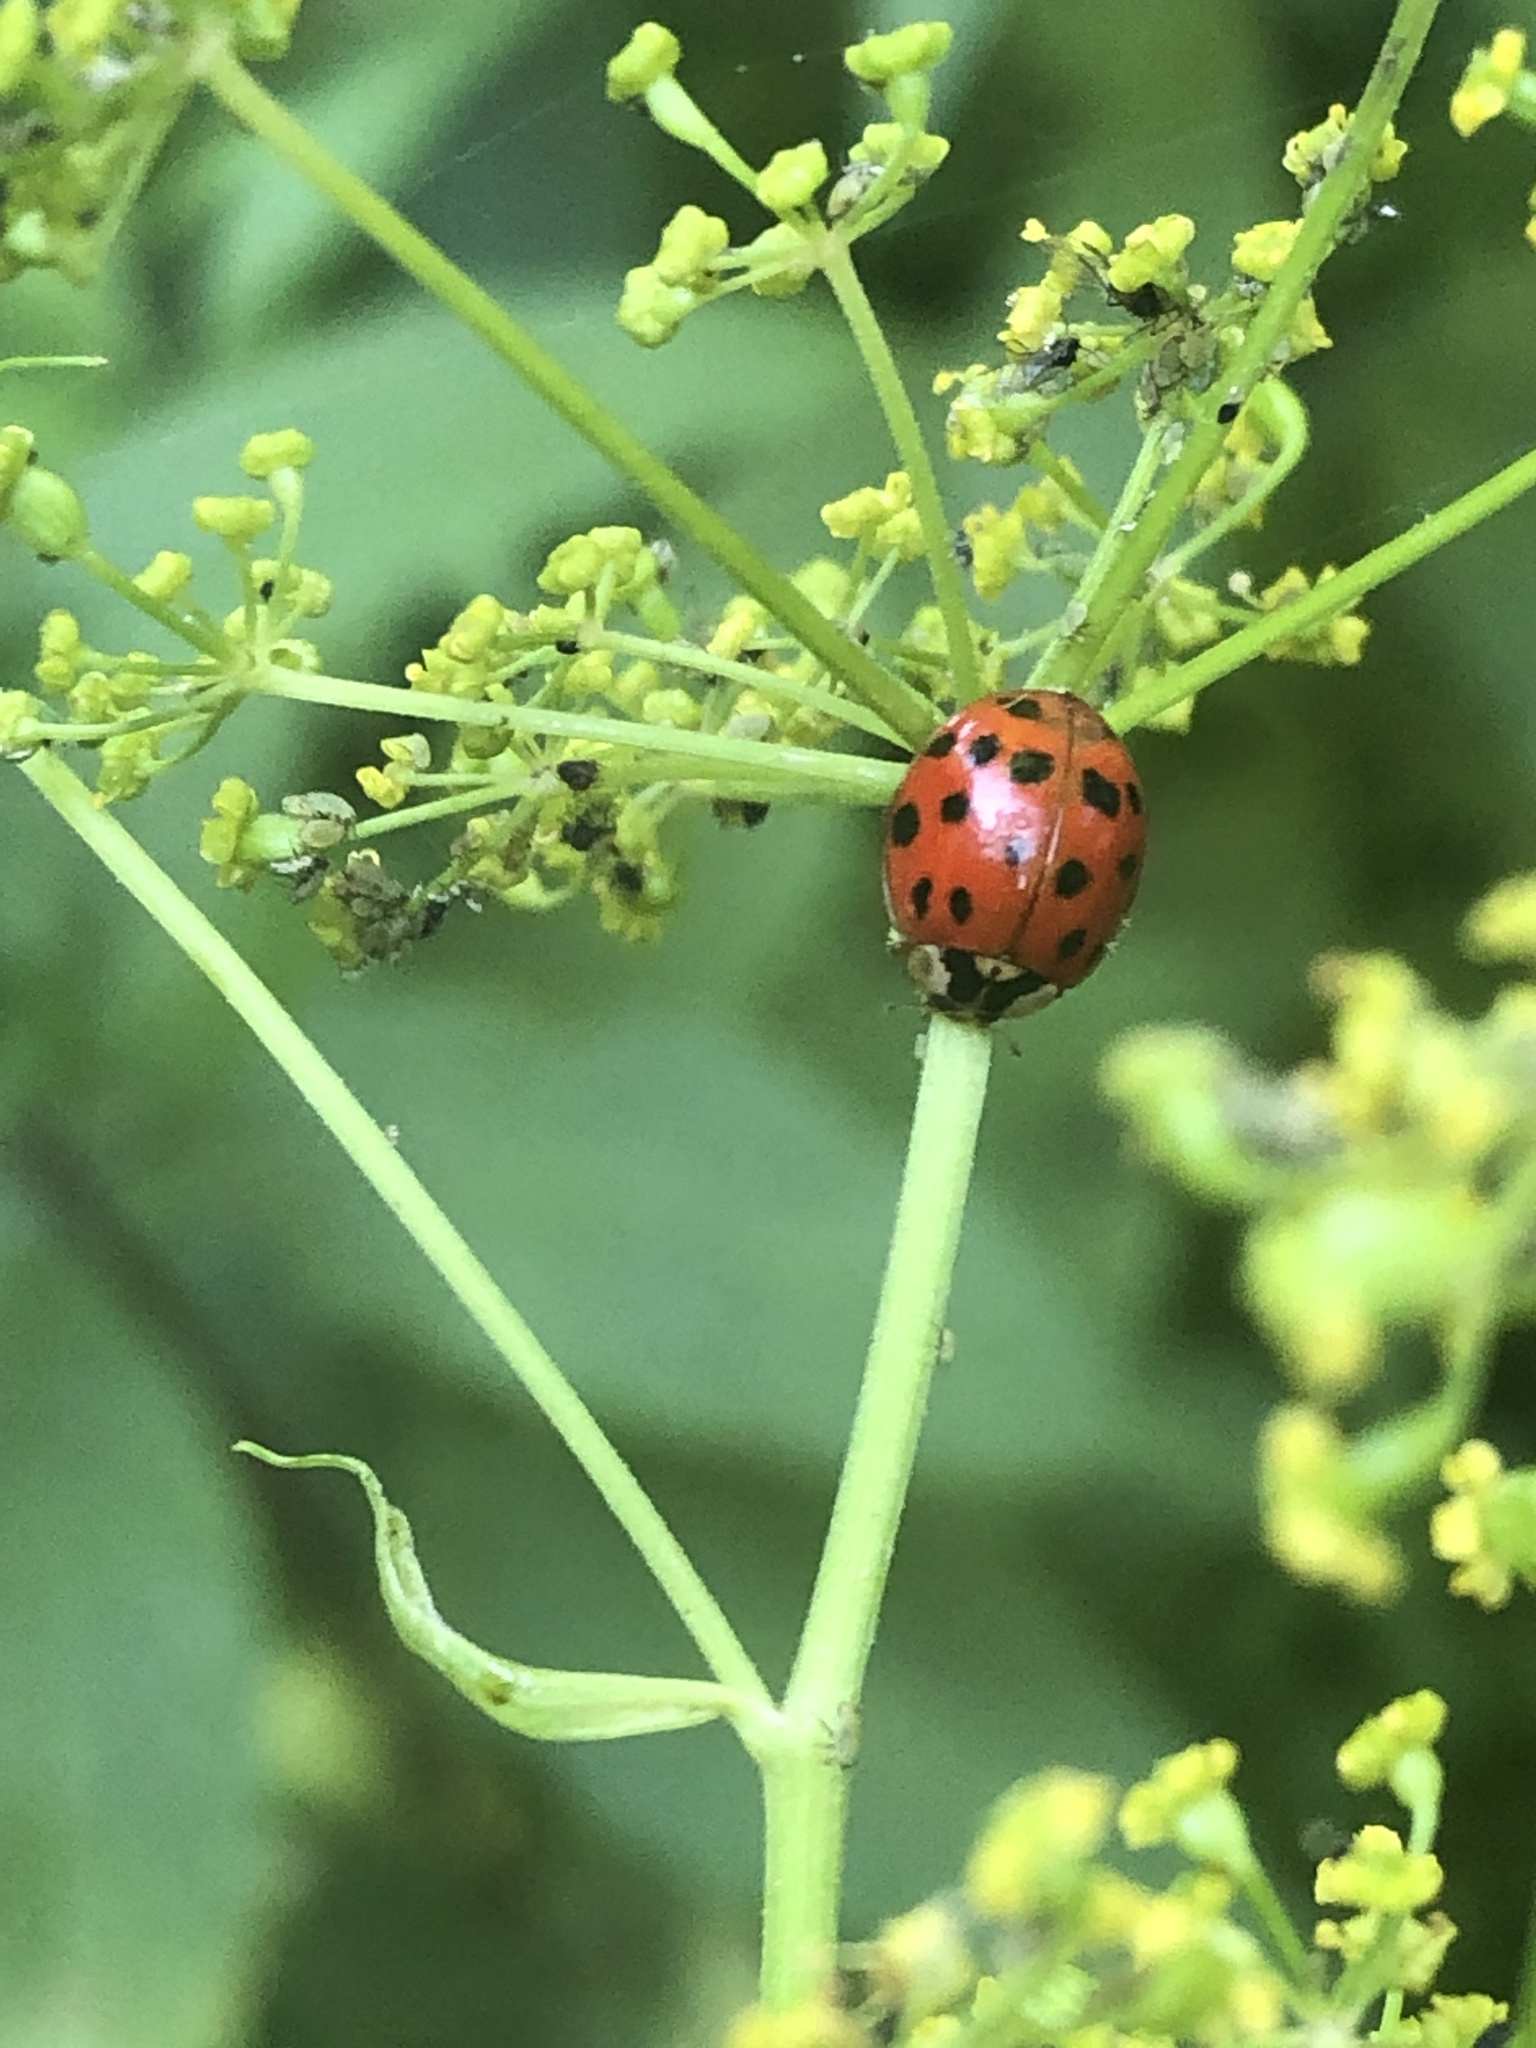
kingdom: Animalia
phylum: Arthropoda
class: Insecta
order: Coleoptera
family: Coccinellidae
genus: Harmonia
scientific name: Harmonia axyridis
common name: Harlequin ladybird
